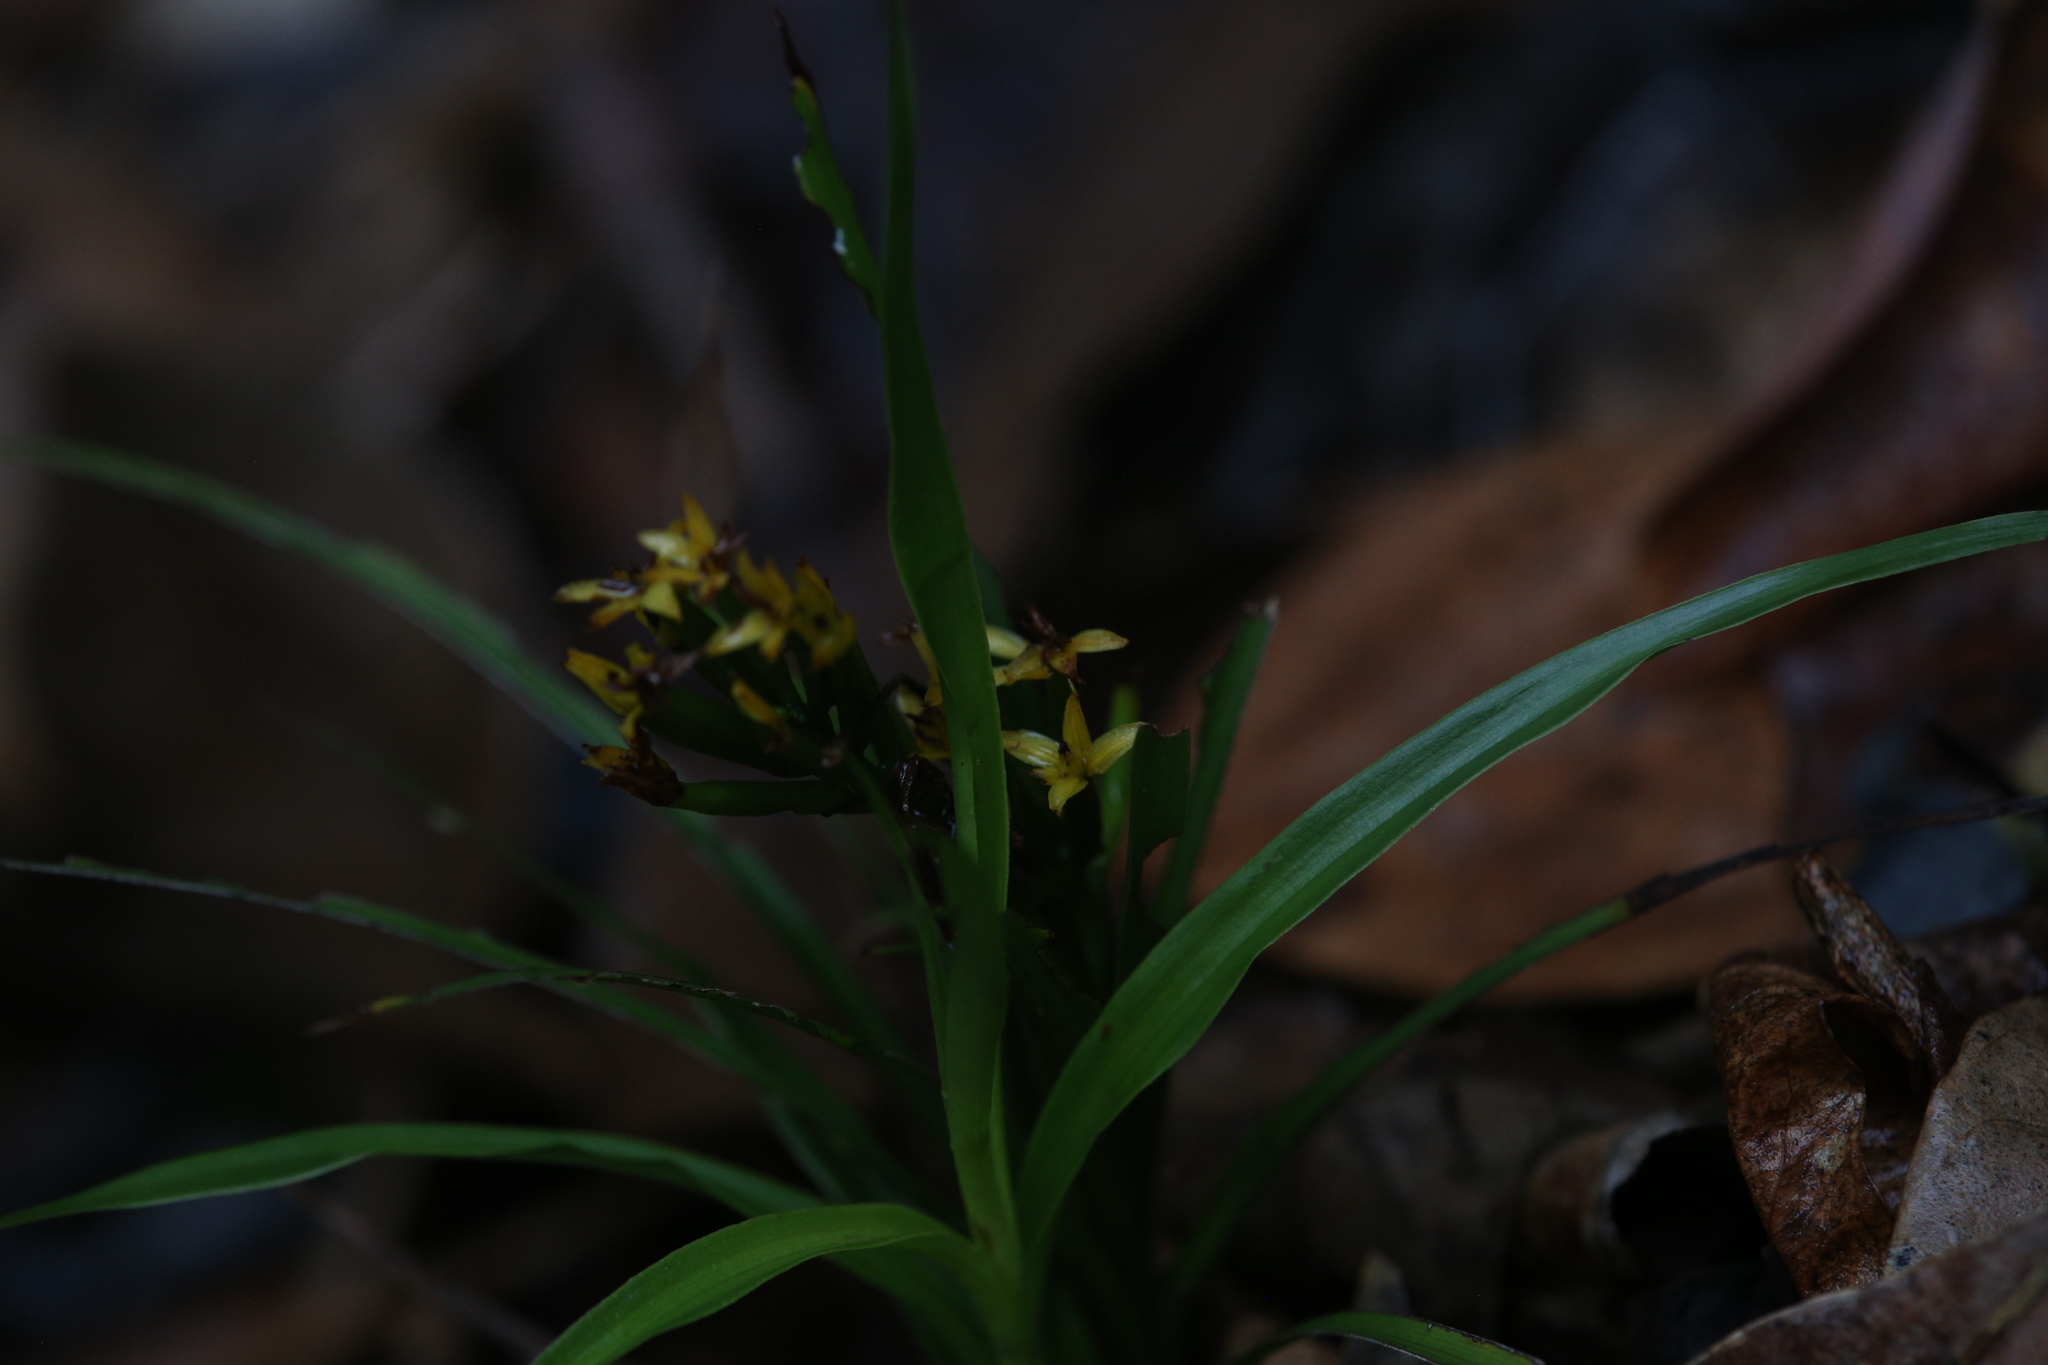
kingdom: Plantae
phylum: Tracheophyta
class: Liliopsida
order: Asparagales
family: Orchidaceae
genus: Apostasia
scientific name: Apostasia wallichii
